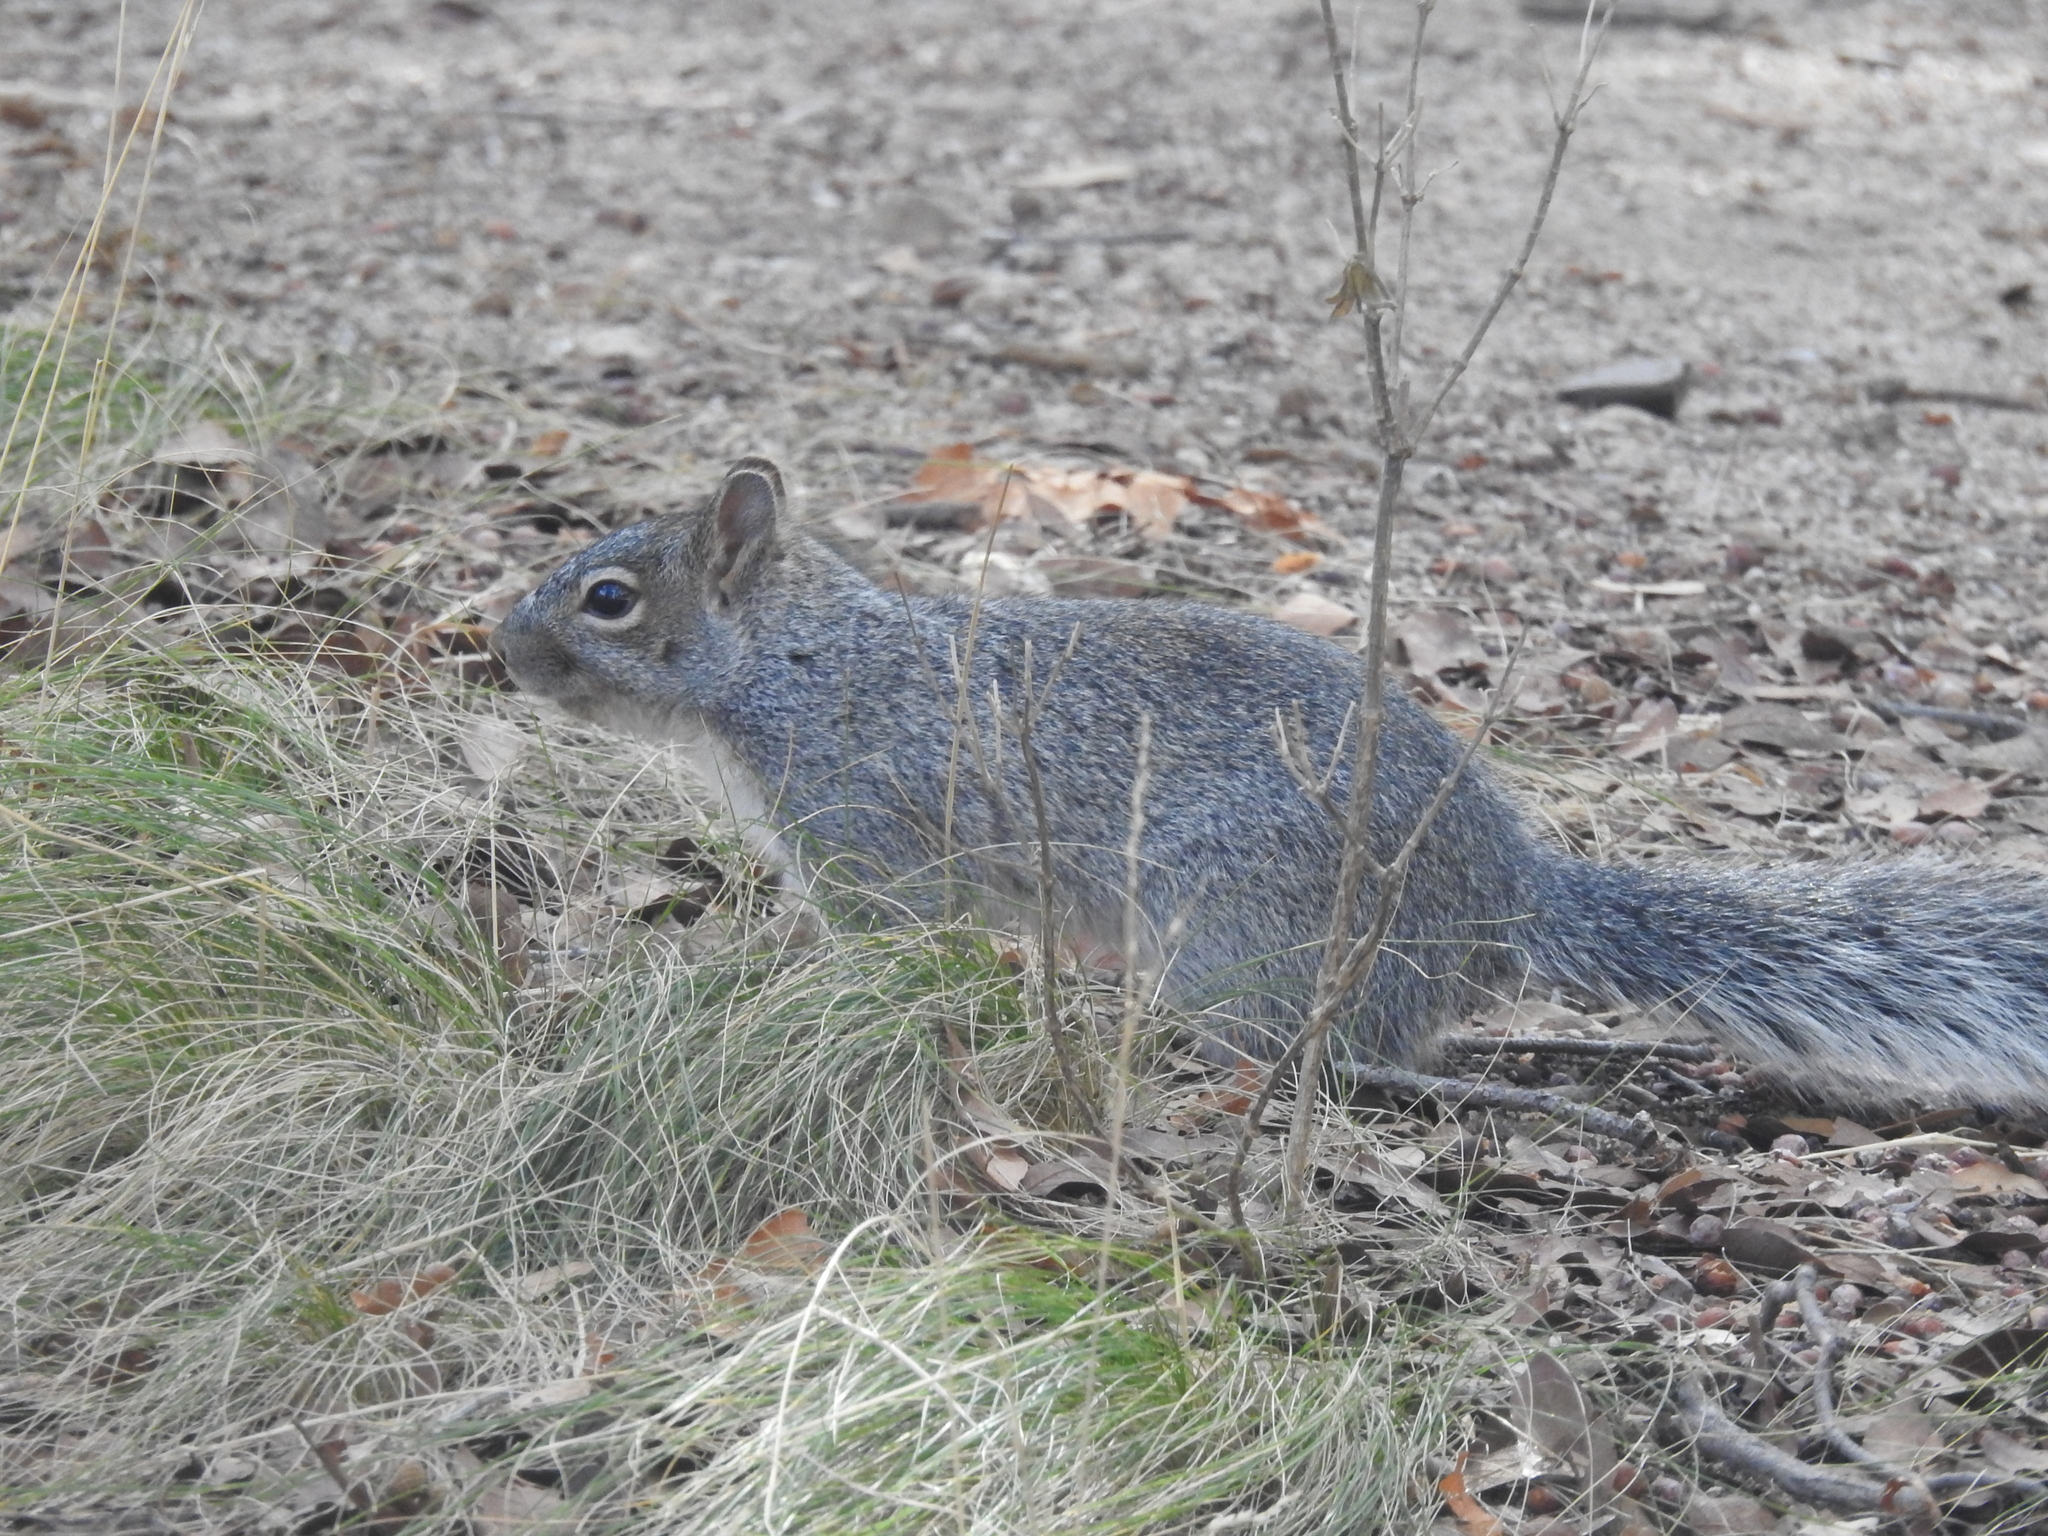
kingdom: Animalia
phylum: Chordata
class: Mammalia
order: Rodentia
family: Sciuridae
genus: Sciurus
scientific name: Sciurus arizonensis
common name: Arizona gray squirrel
